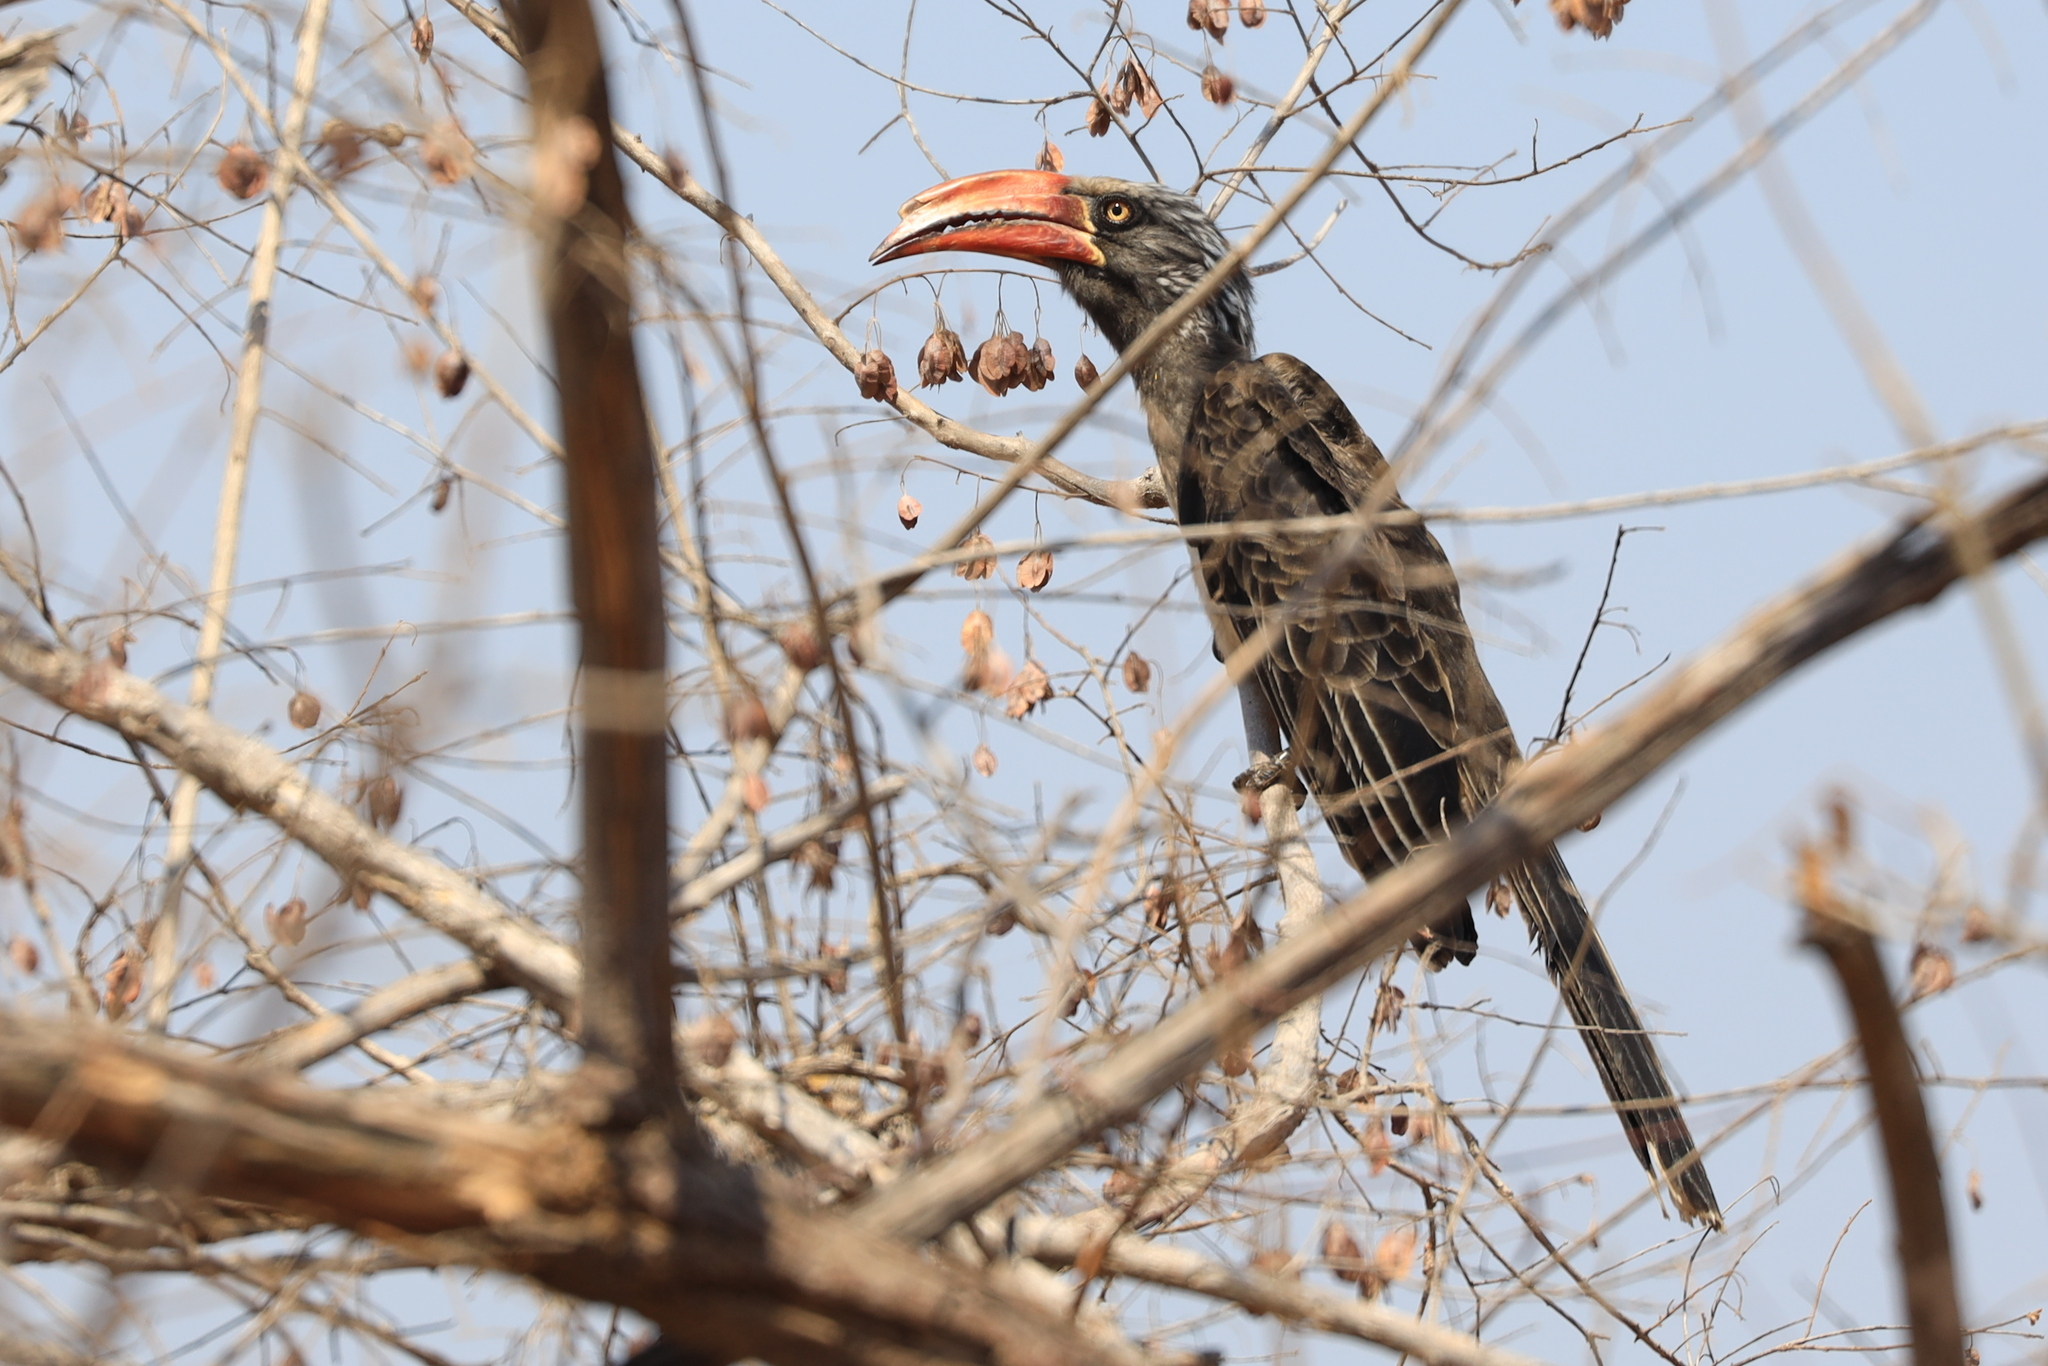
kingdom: Animalia
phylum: Chordata
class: Aves
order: Bucerotiformes
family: Bucerotidae
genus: Lophoceros
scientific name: Lophoceros alboterminatus
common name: Crowned hornbill
